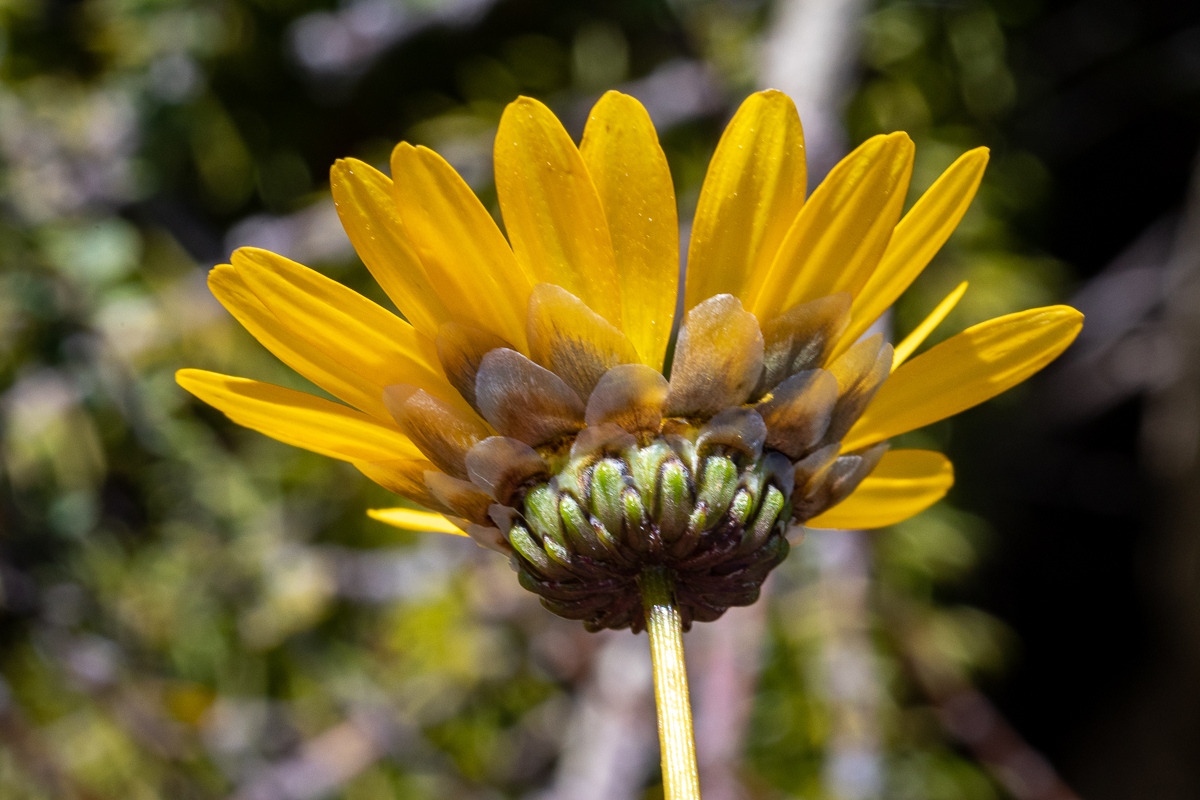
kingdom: Plantae
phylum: Tracheophyta
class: Magnoliopsida
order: Asterales
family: Asteraceae
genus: Ursinia
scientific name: Ursinia paleacea
